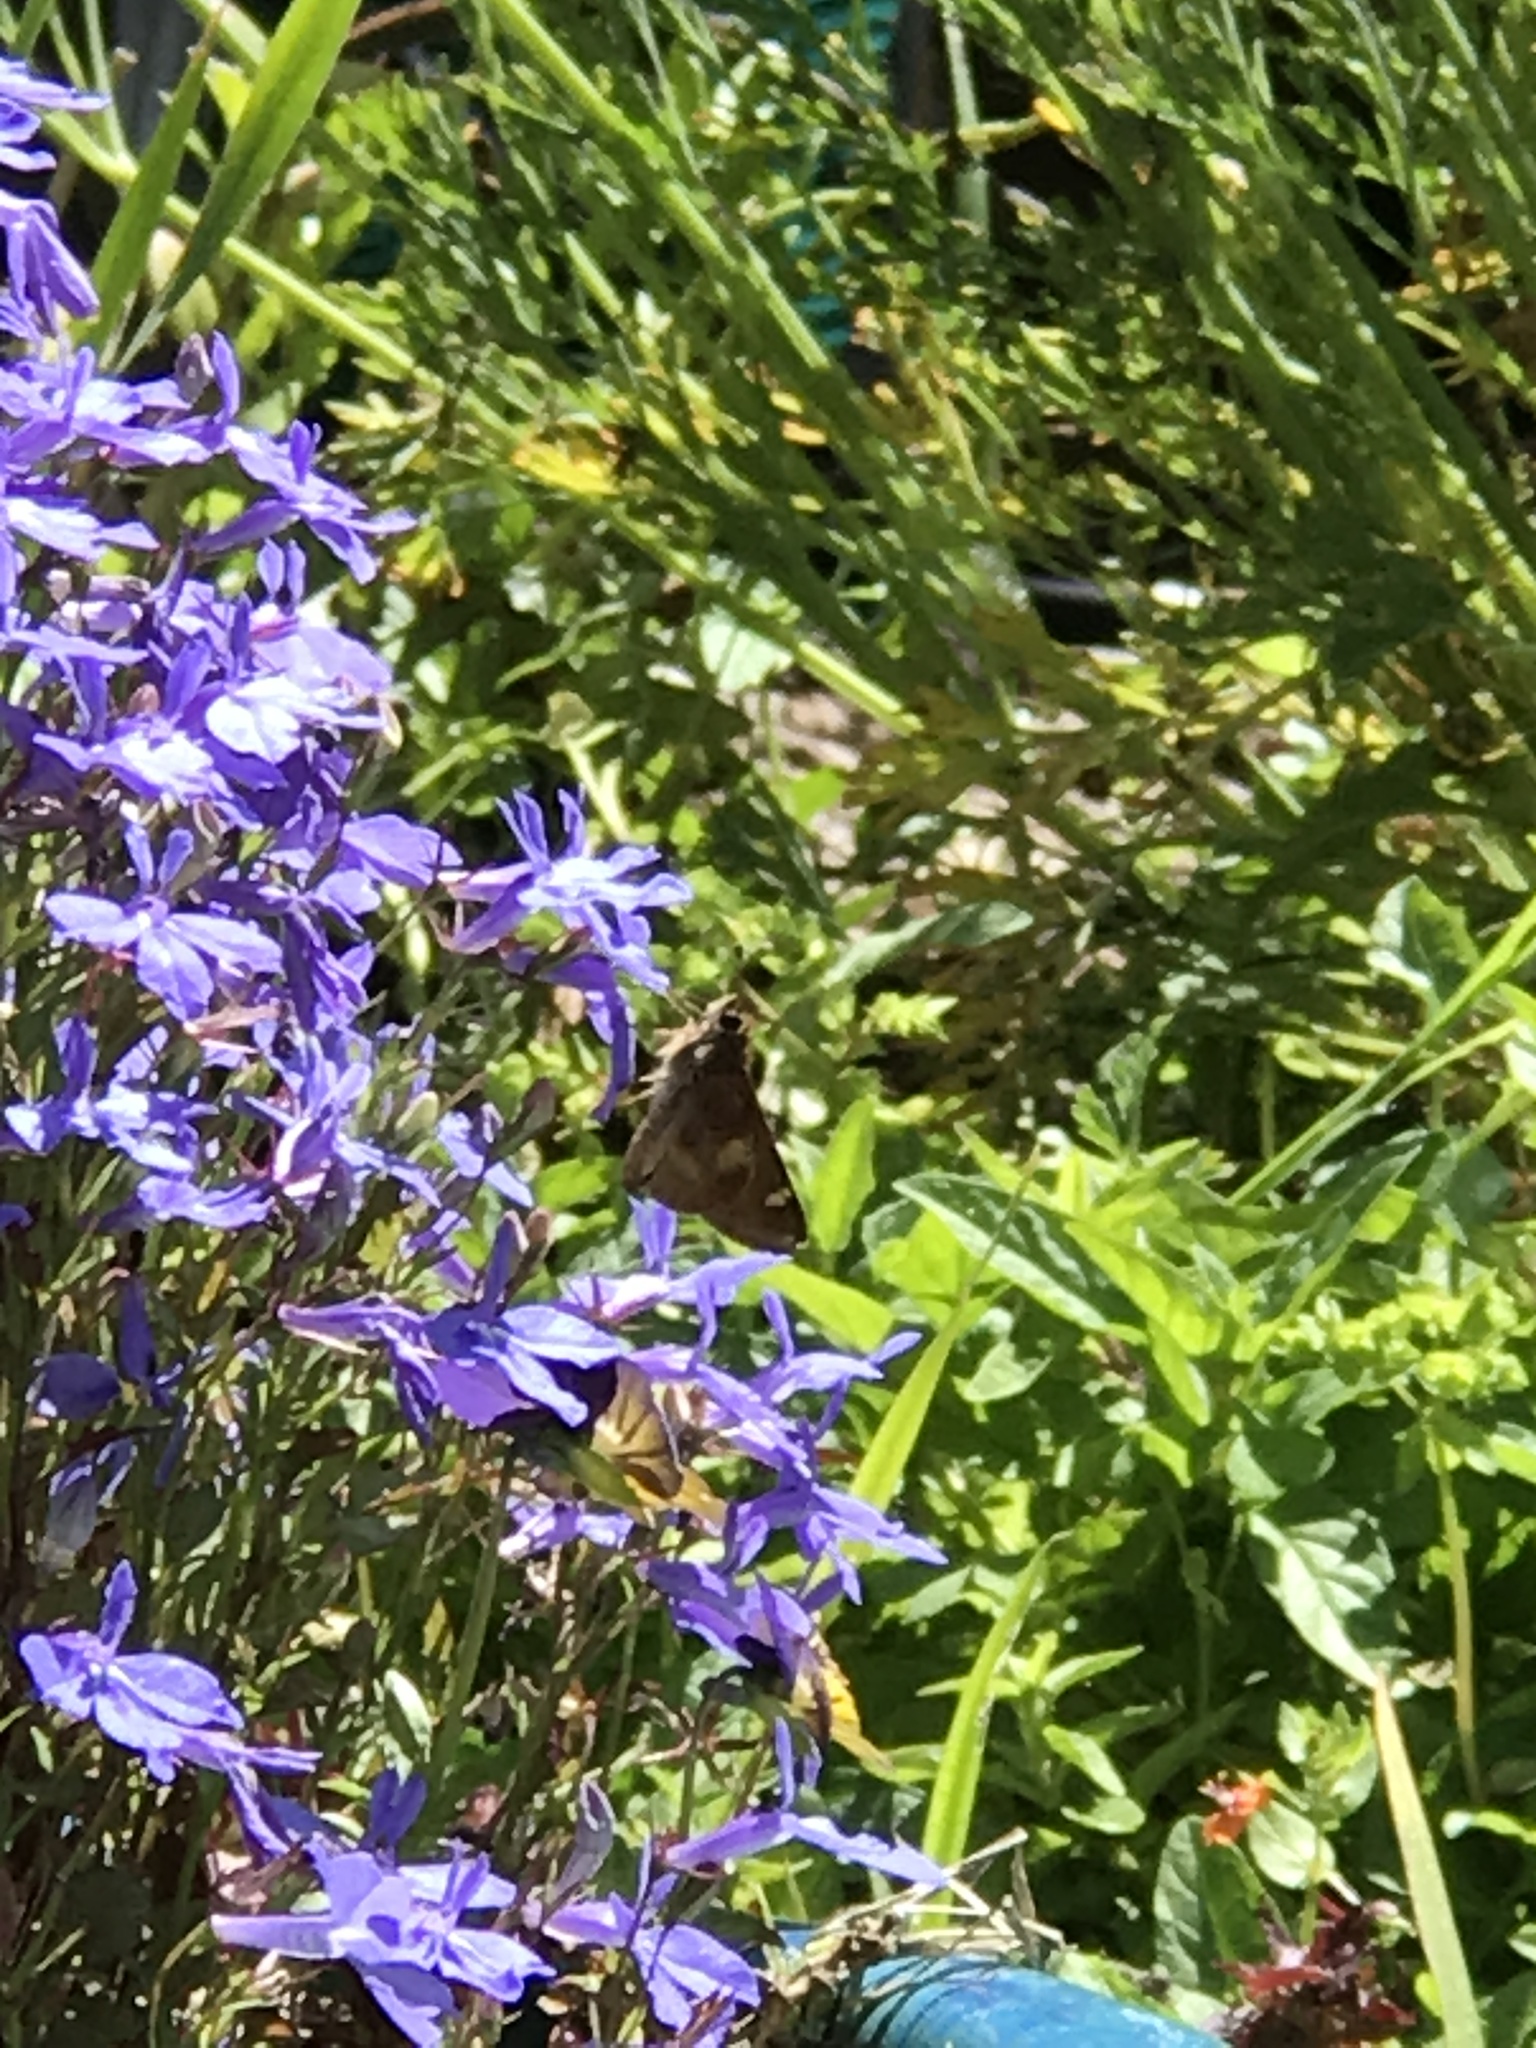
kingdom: Animalia
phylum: Arthropoda
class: Insecta
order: Lepidoptera
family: Hesperiidae
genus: Lon
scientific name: Lon melane
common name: Umber skipper
